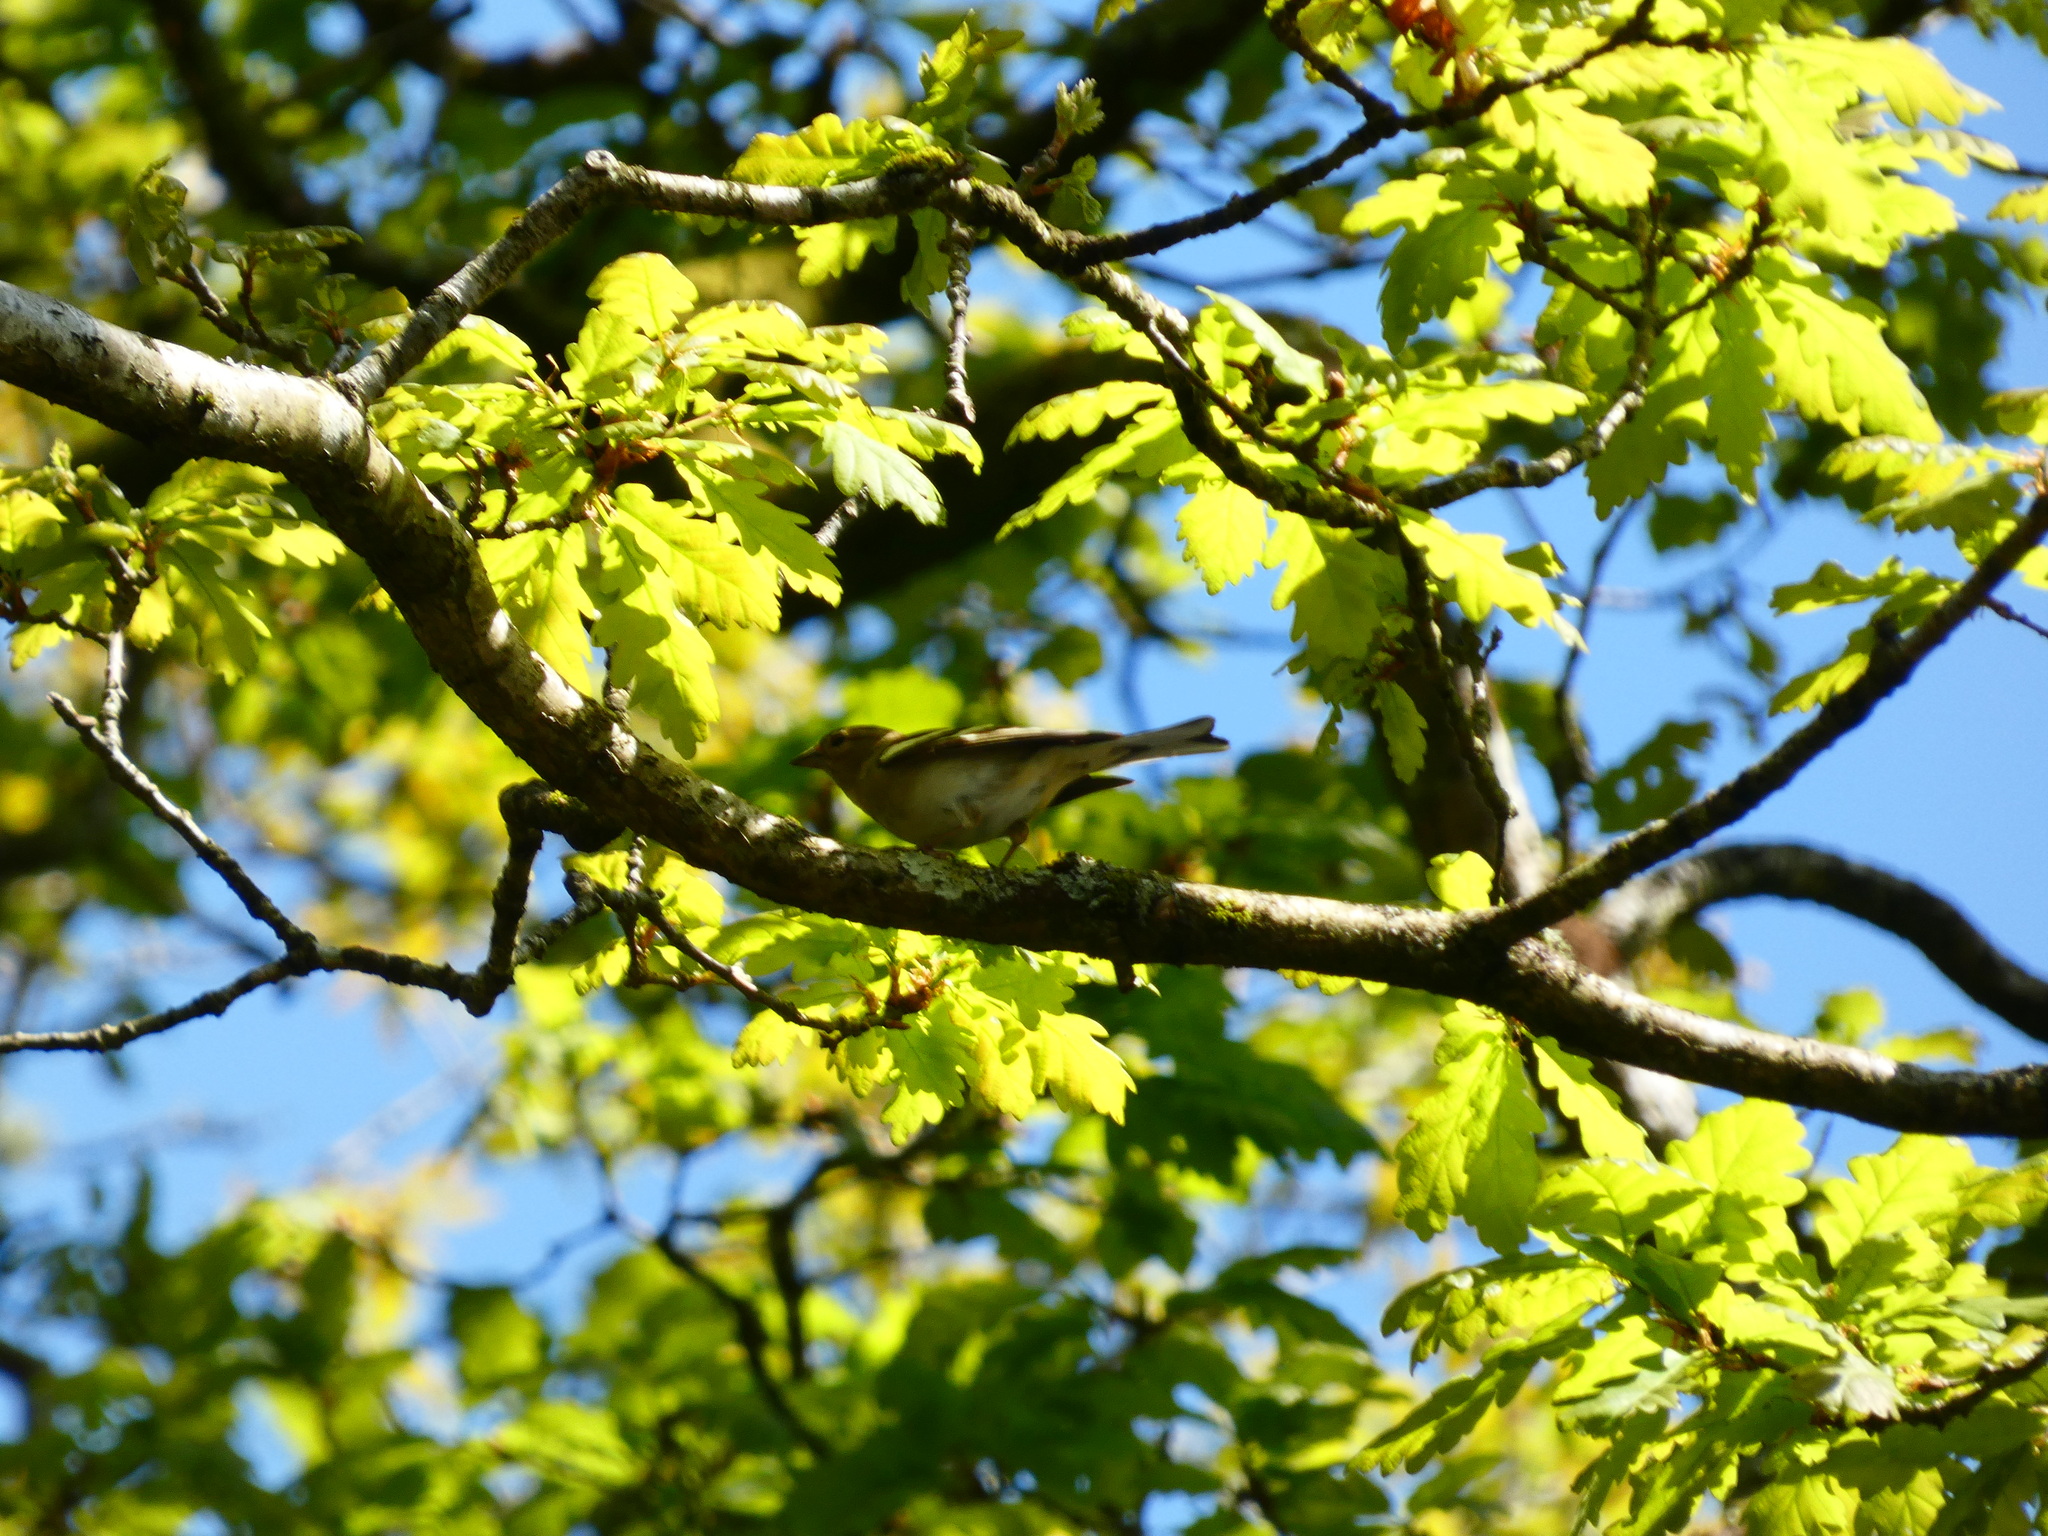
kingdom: Animalia
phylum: Chordata
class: Aves
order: Passeriformes
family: Fringillidae
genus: Fringilla
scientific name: Fringilla coelebs
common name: Common chaffinch
